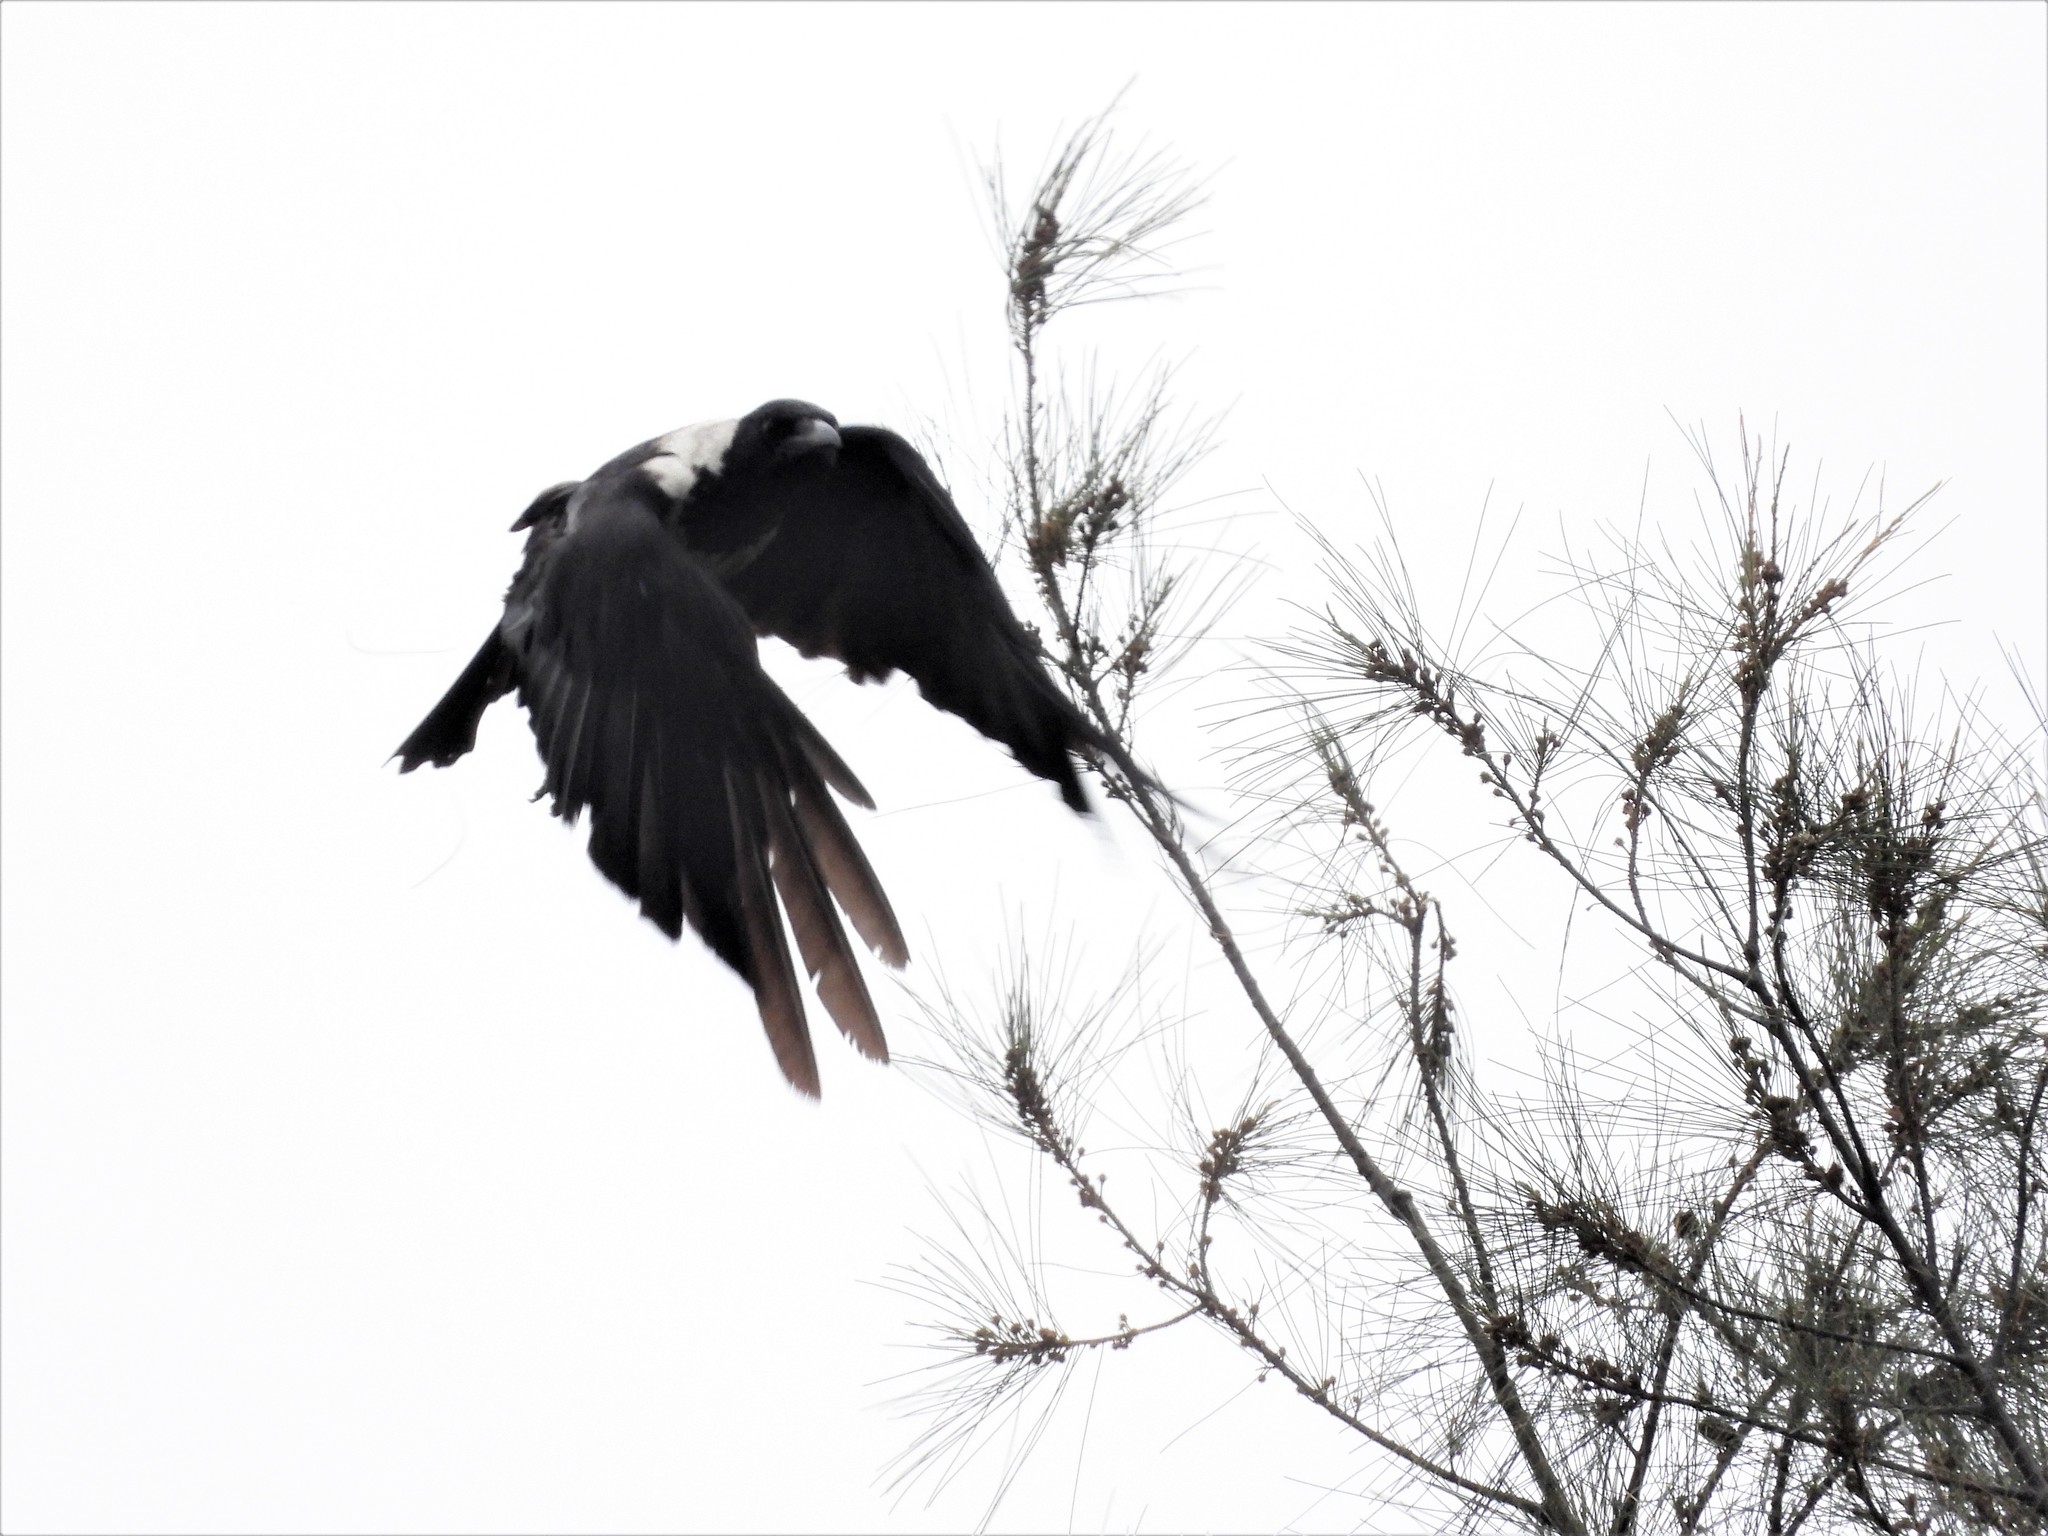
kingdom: Animalia
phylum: Chordata
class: Aves
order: Passeriformes
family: Corvidae
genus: Corvus
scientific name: Corvus pectoralis
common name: Collared crow
